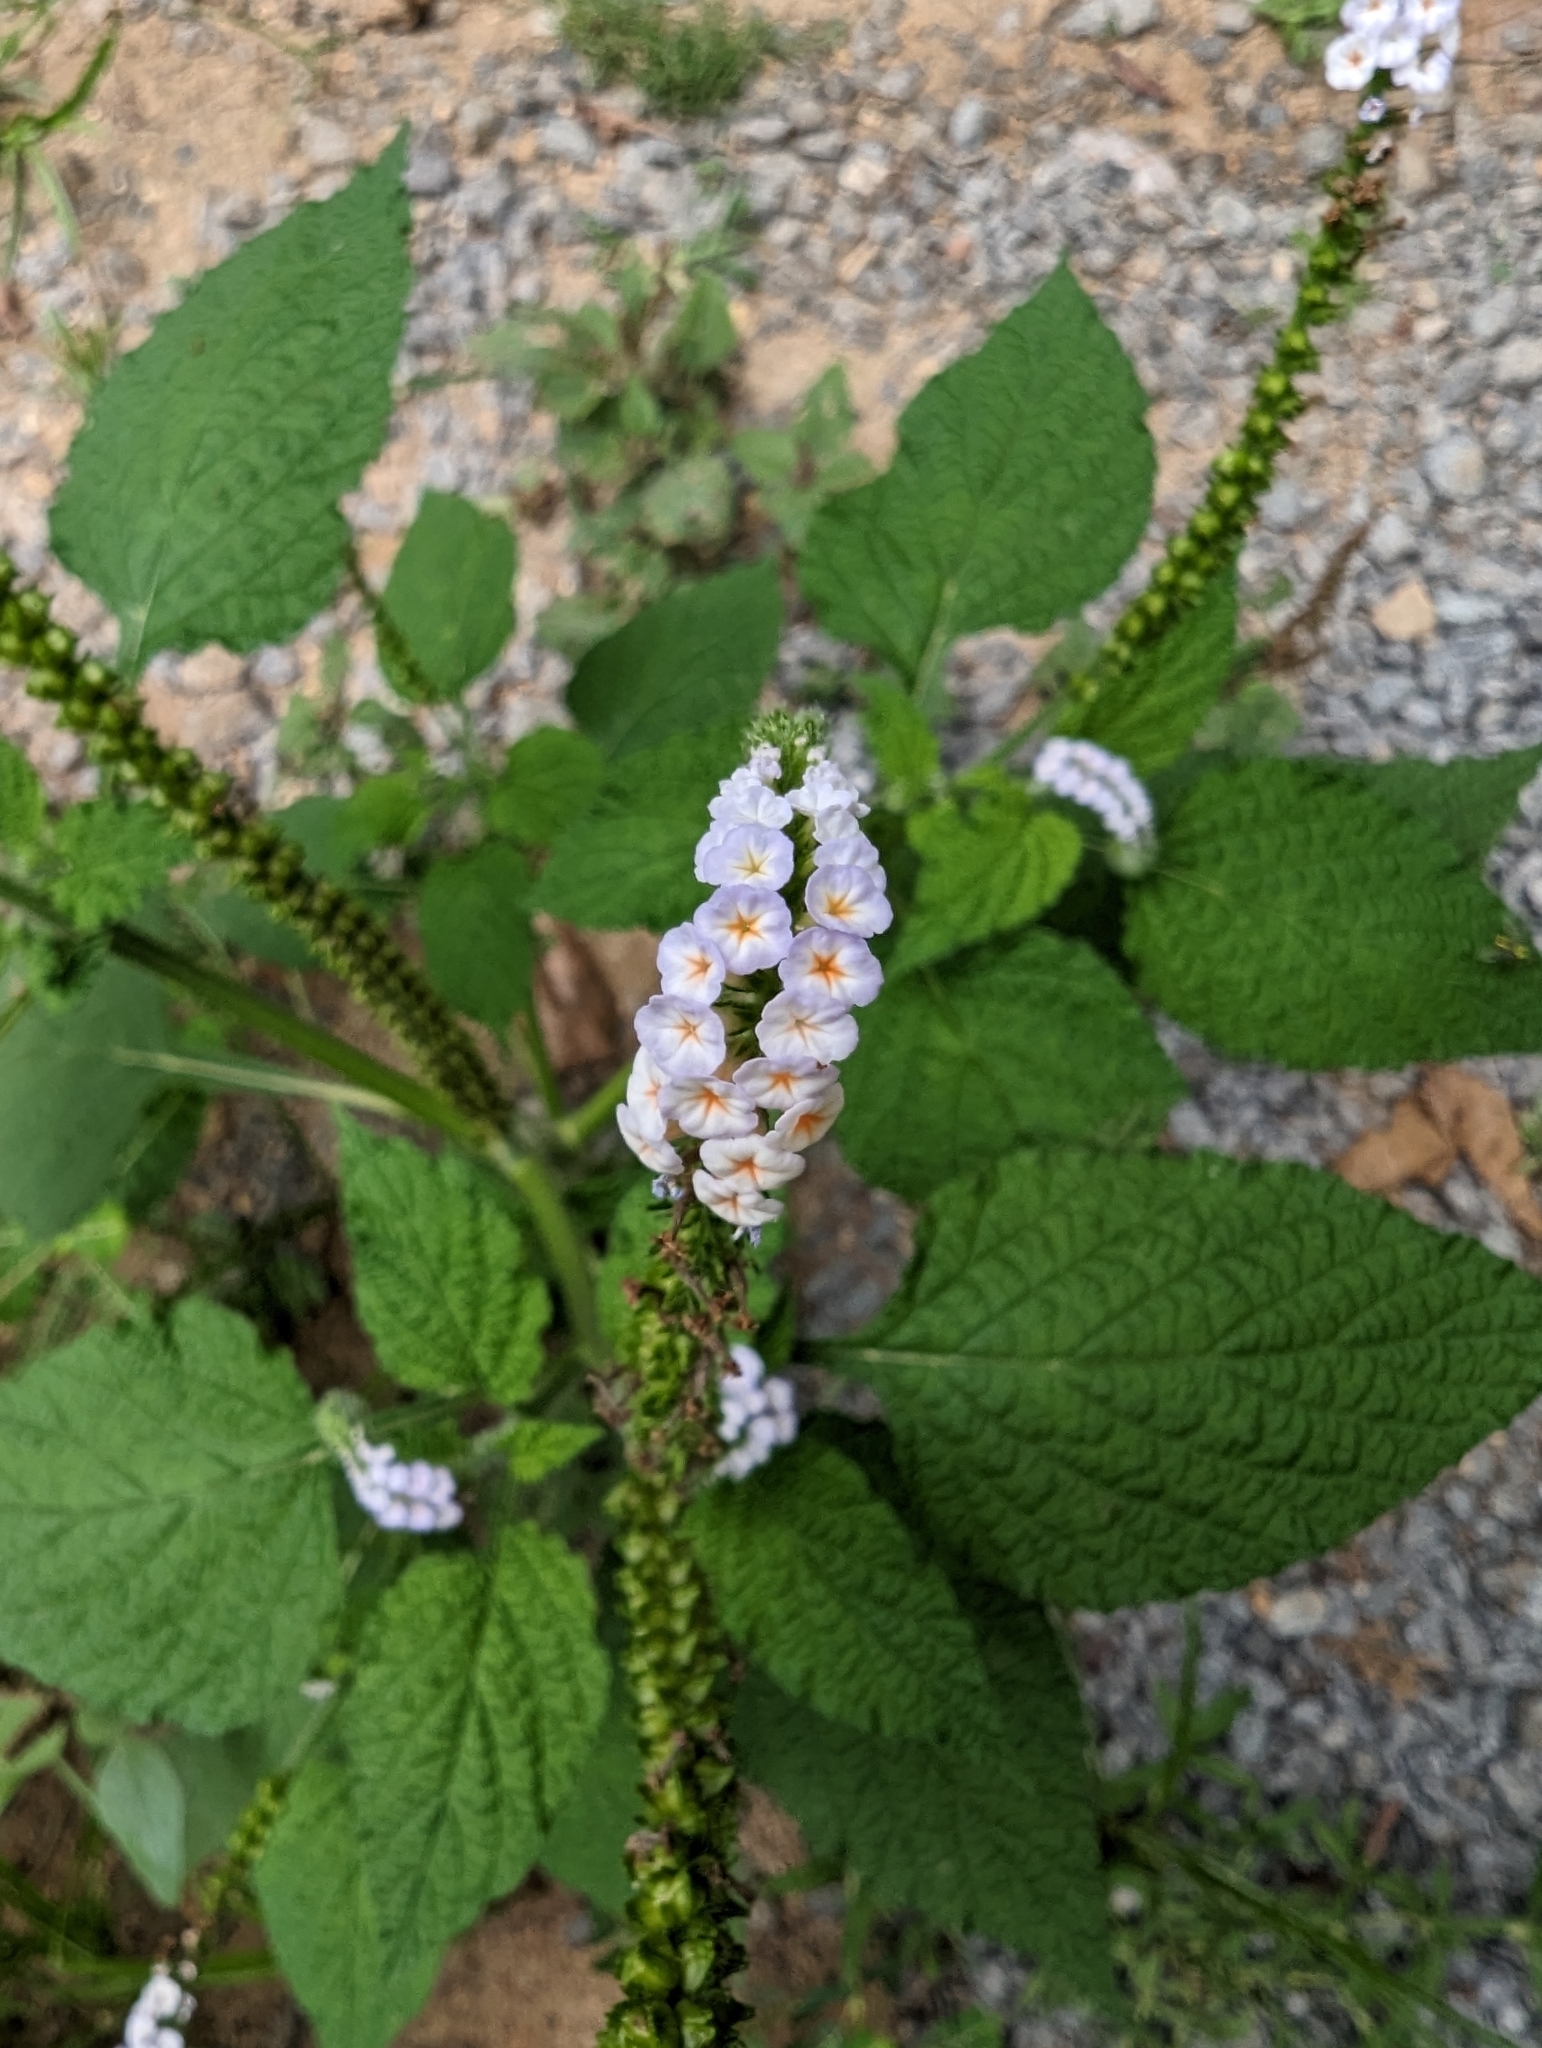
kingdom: Plantae
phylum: Tracheophyta
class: Magnoliopsida
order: Boraginales
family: Heliotropiaceae
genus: Heliotropium
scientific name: Heliotropium indicum
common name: Indian heliotrope
